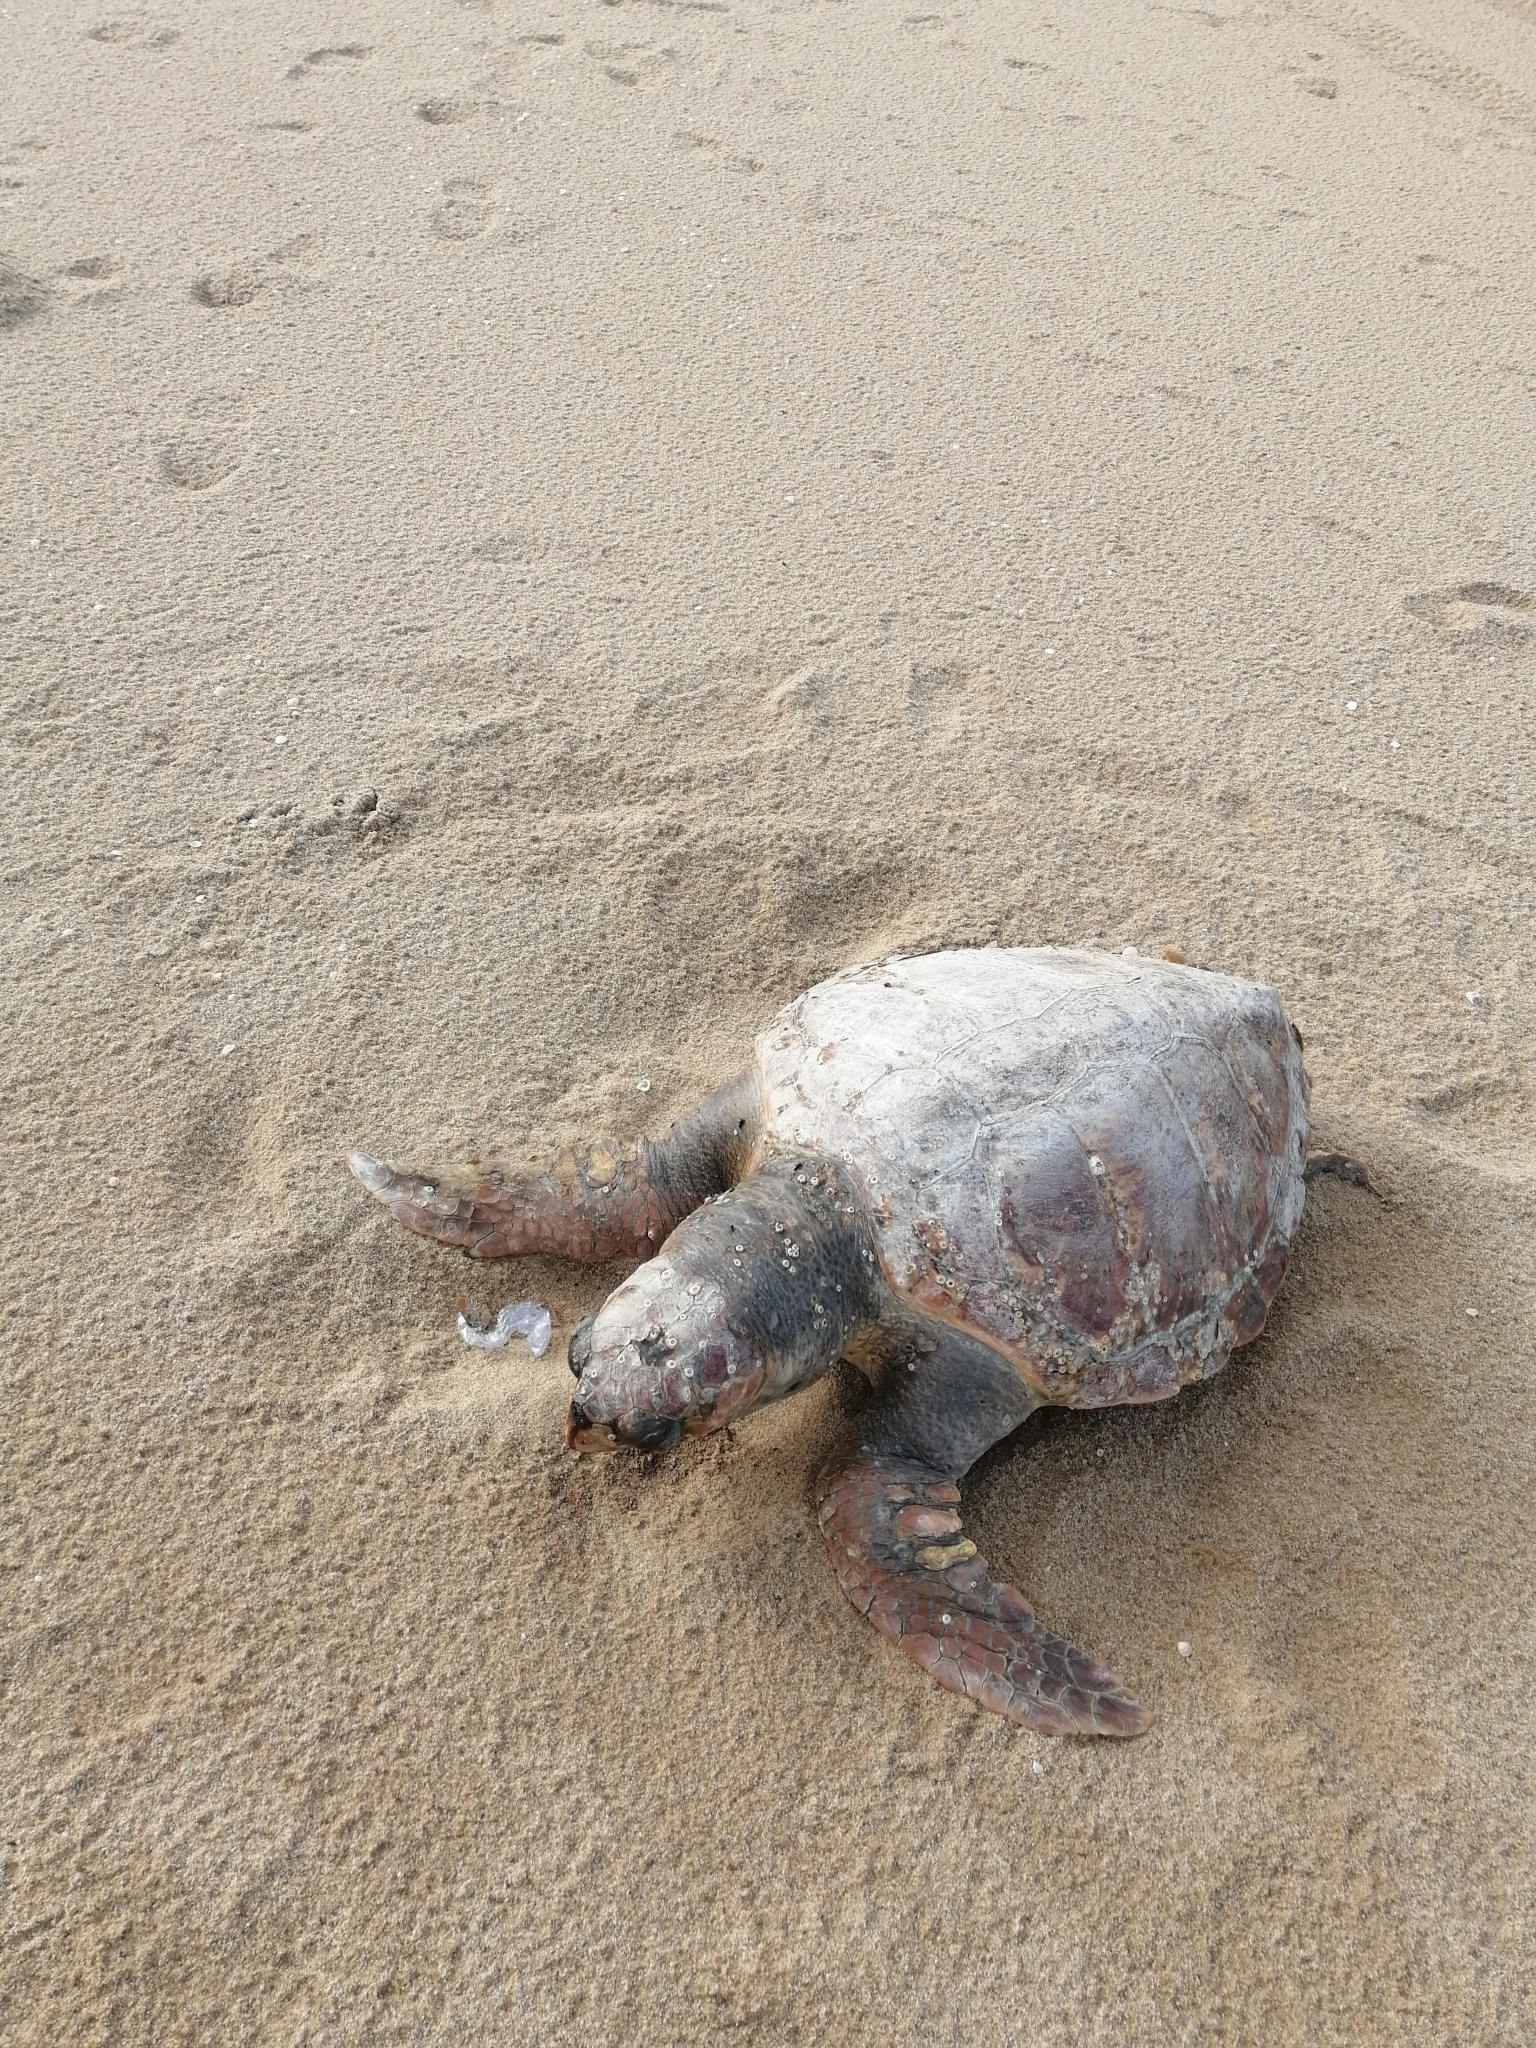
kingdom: Animalia
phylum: Chordata
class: Testudines
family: Cheloniidae
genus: Caretta
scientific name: Caretta caretta
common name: Loggerhead sea turtle
